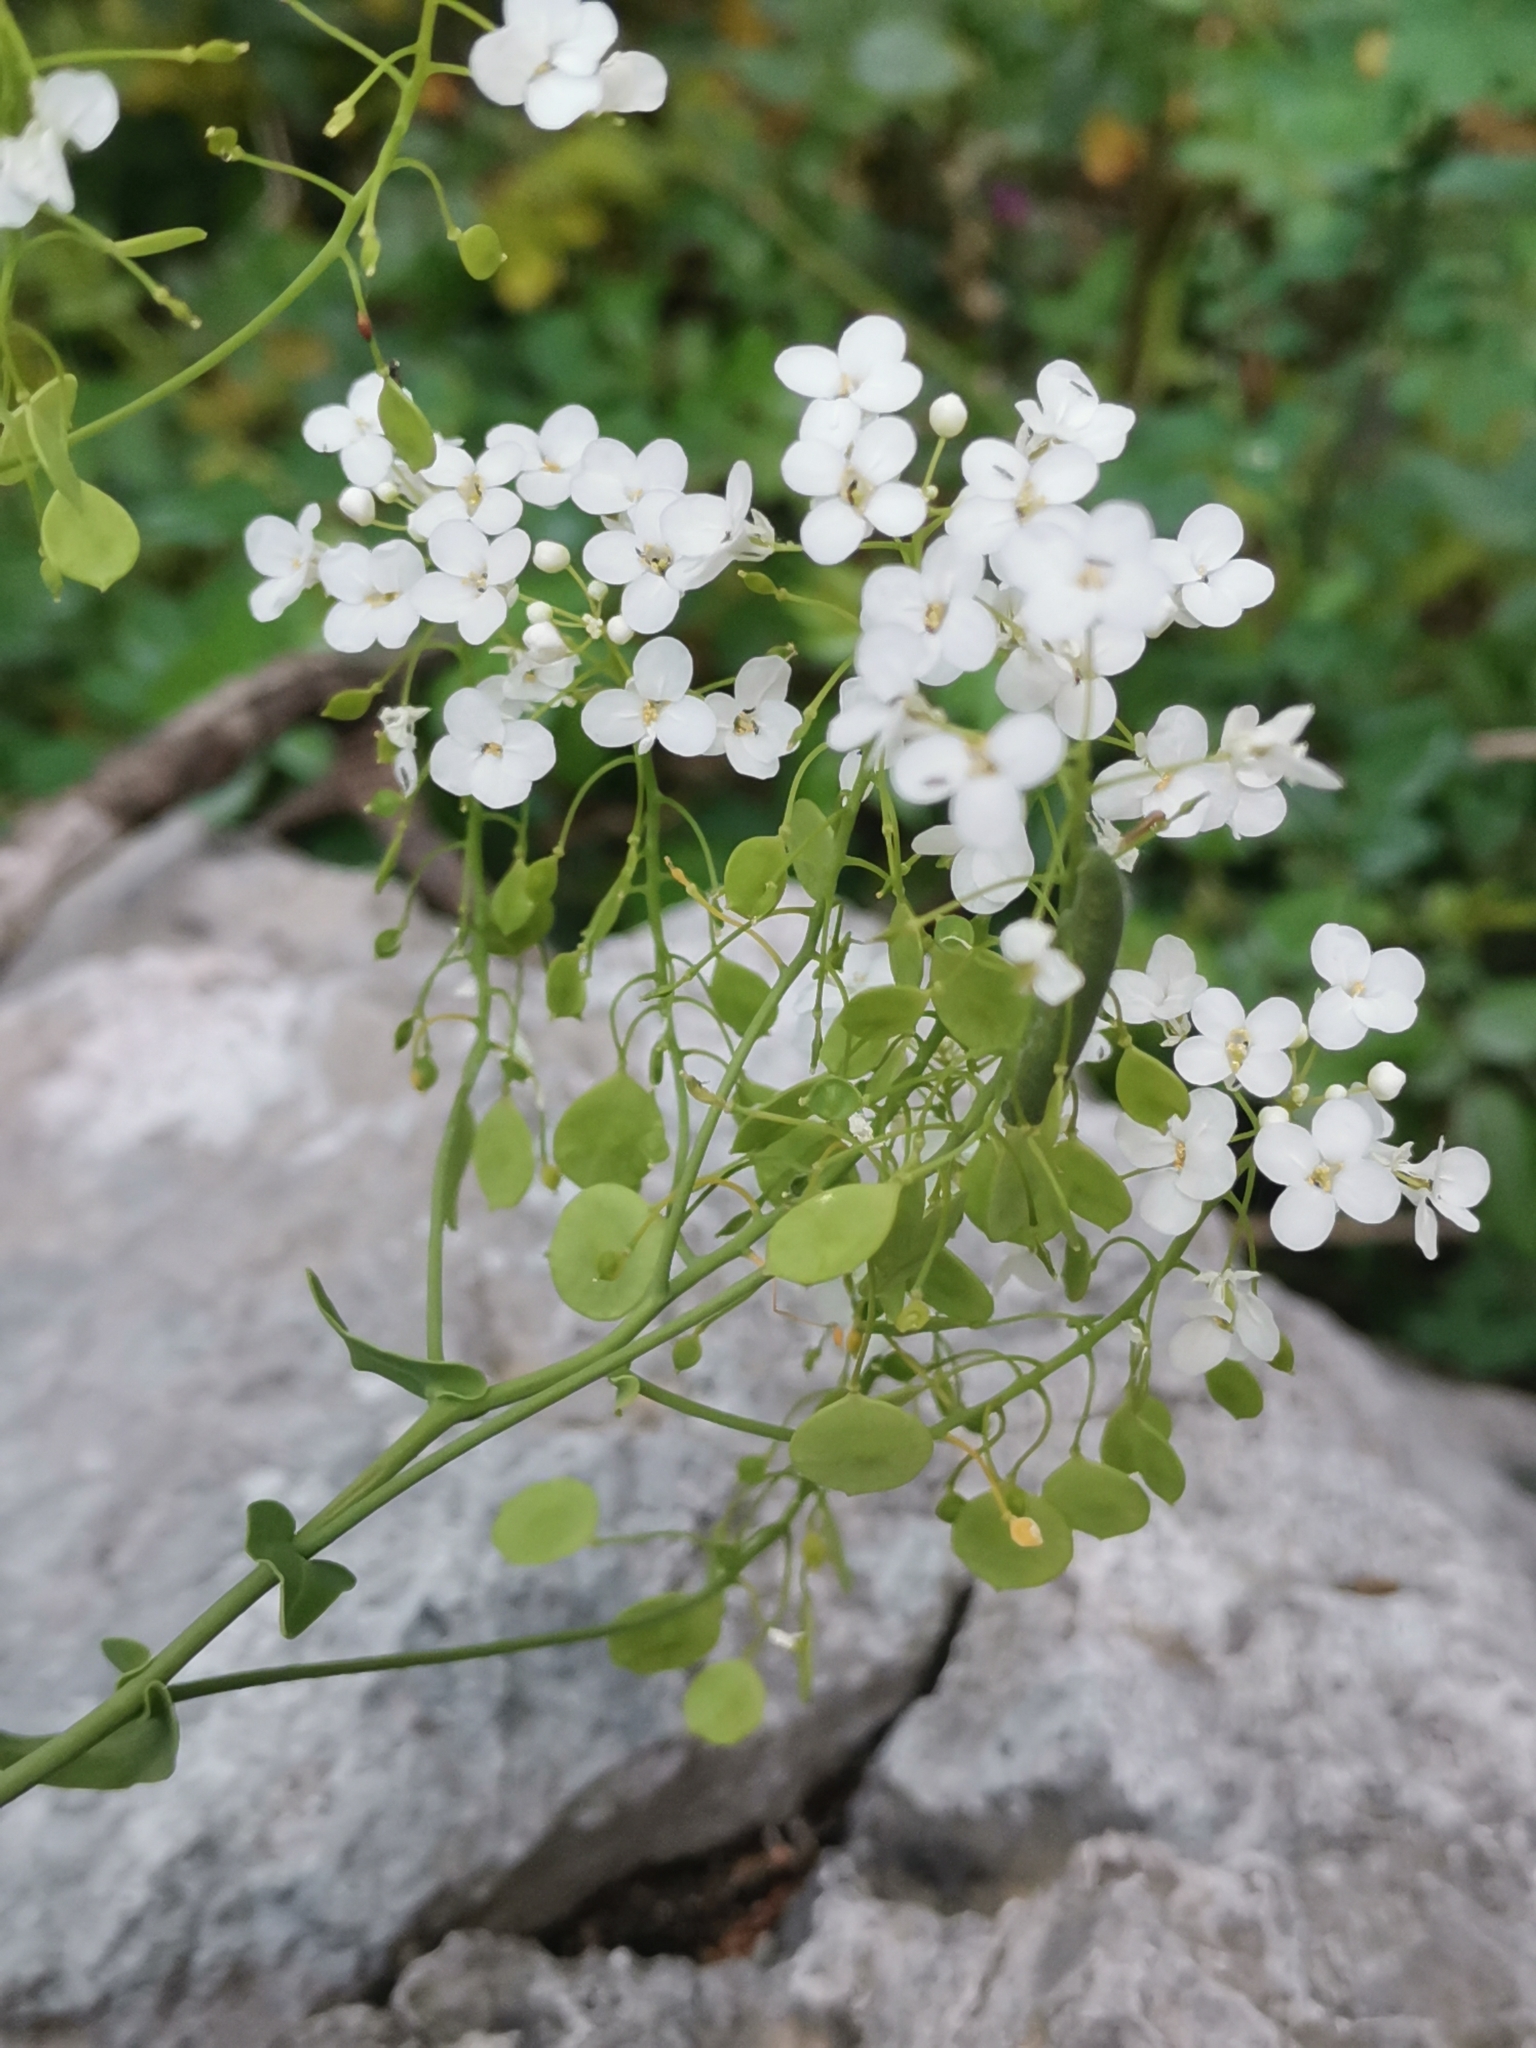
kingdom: Plantae
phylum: Tracheophyta
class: Magnoliopsida
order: Brassicales
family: Brassicaceae
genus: Peltaria
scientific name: Peltaria alliacea
